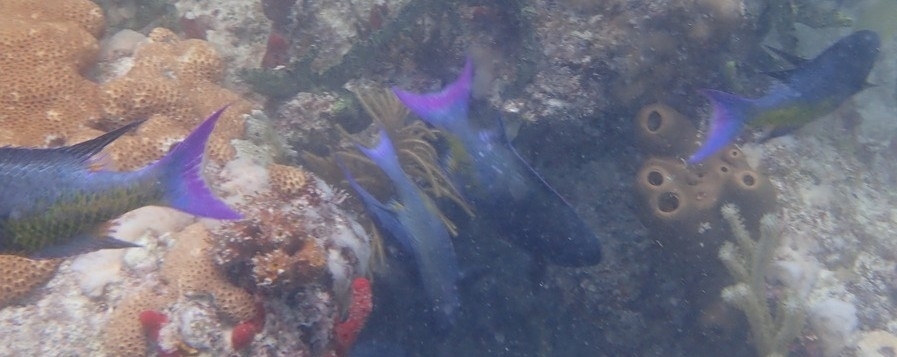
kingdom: Animalia
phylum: Chordata
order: Perciformes
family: Labridae
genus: Bodianus
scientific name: Bodianus
